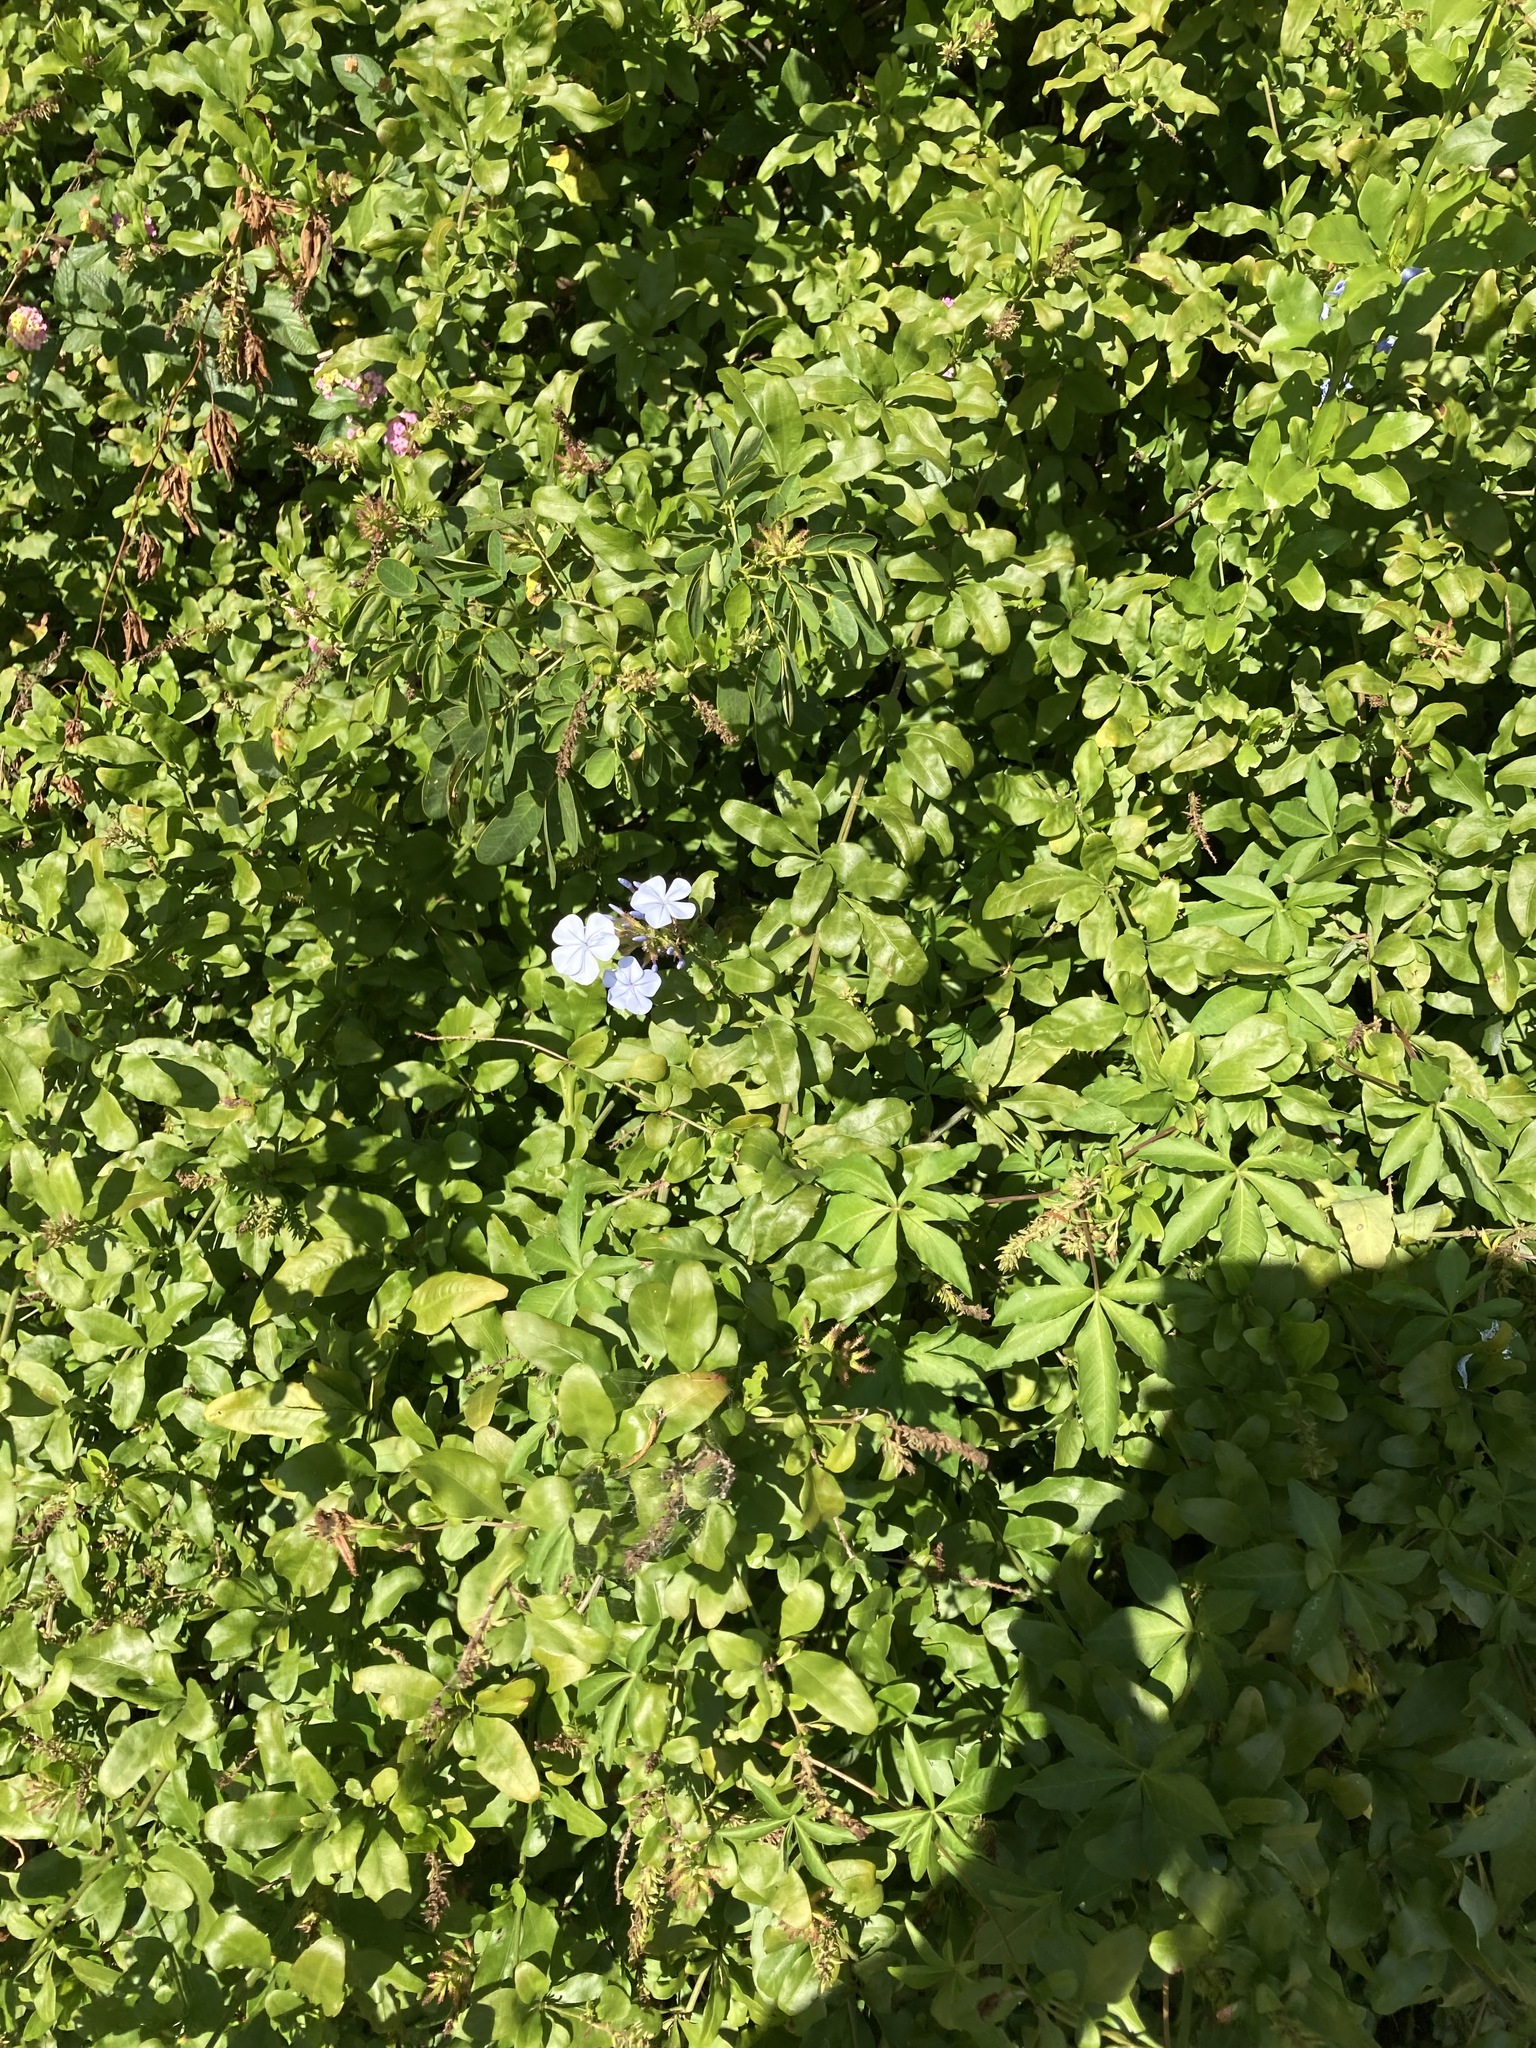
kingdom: Plantae
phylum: Tracheophyta
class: Magnoliopsida
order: Caryophyllales
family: Plumbaginaceae
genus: Plumbago
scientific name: Plumbago auriculata
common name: Cape leadwort
